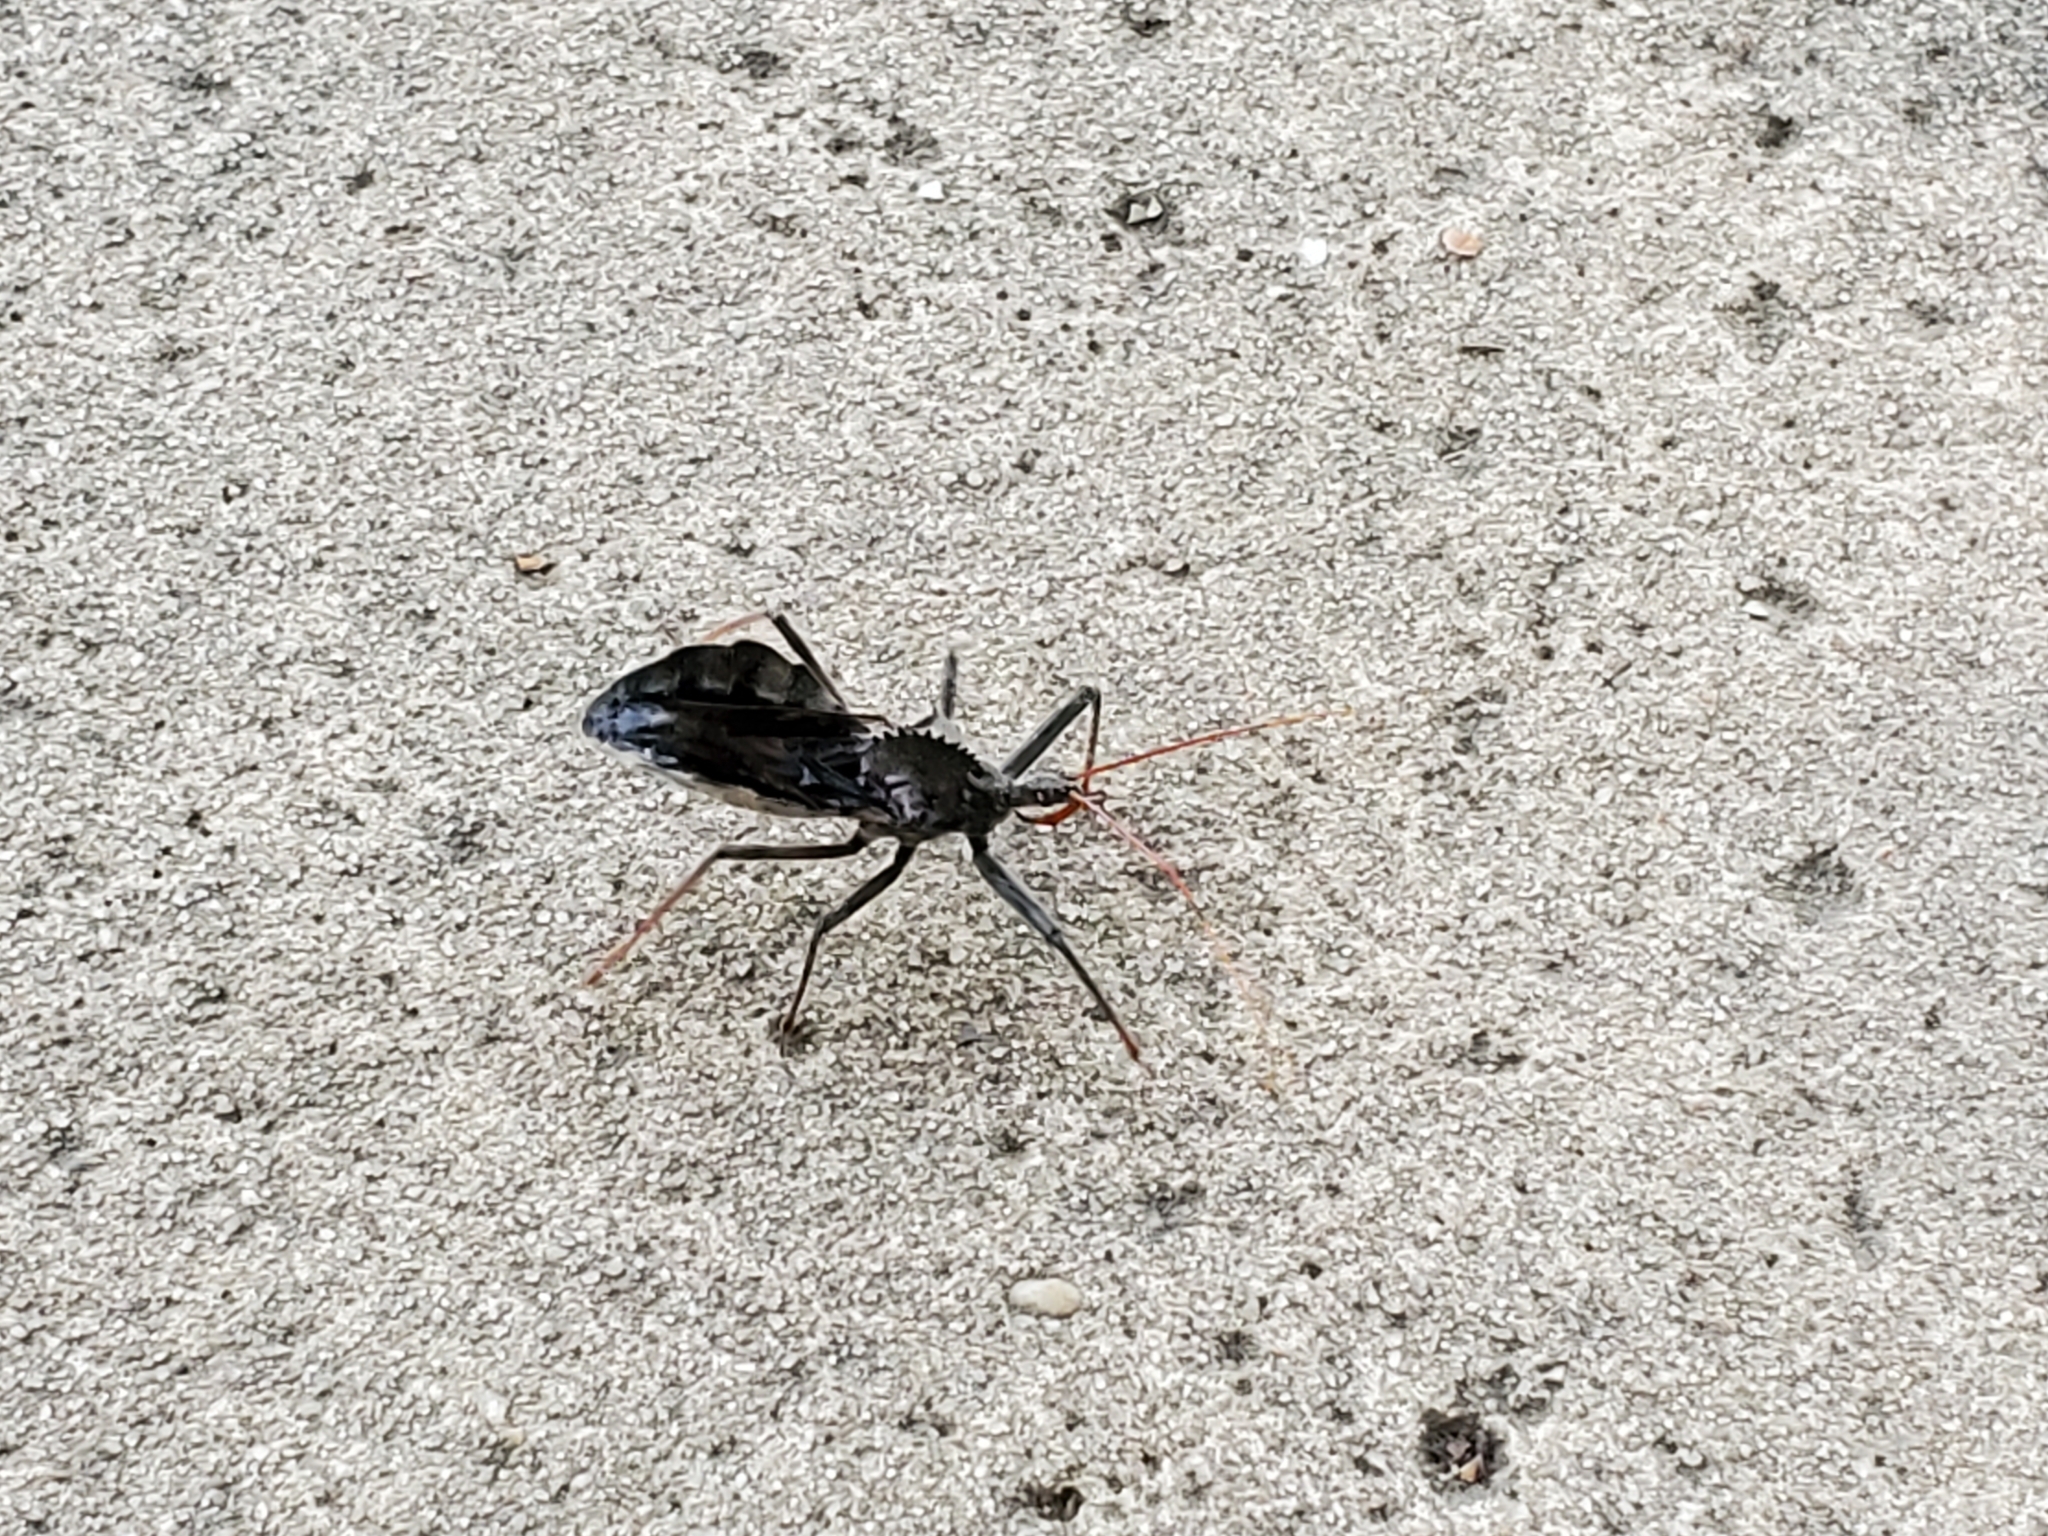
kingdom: Animalia
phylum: Arthropoda
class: Insecta
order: Hemiptera
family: Reduviidae
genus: Arilus
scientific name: Arilus cristatus
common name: North american wheel bug
